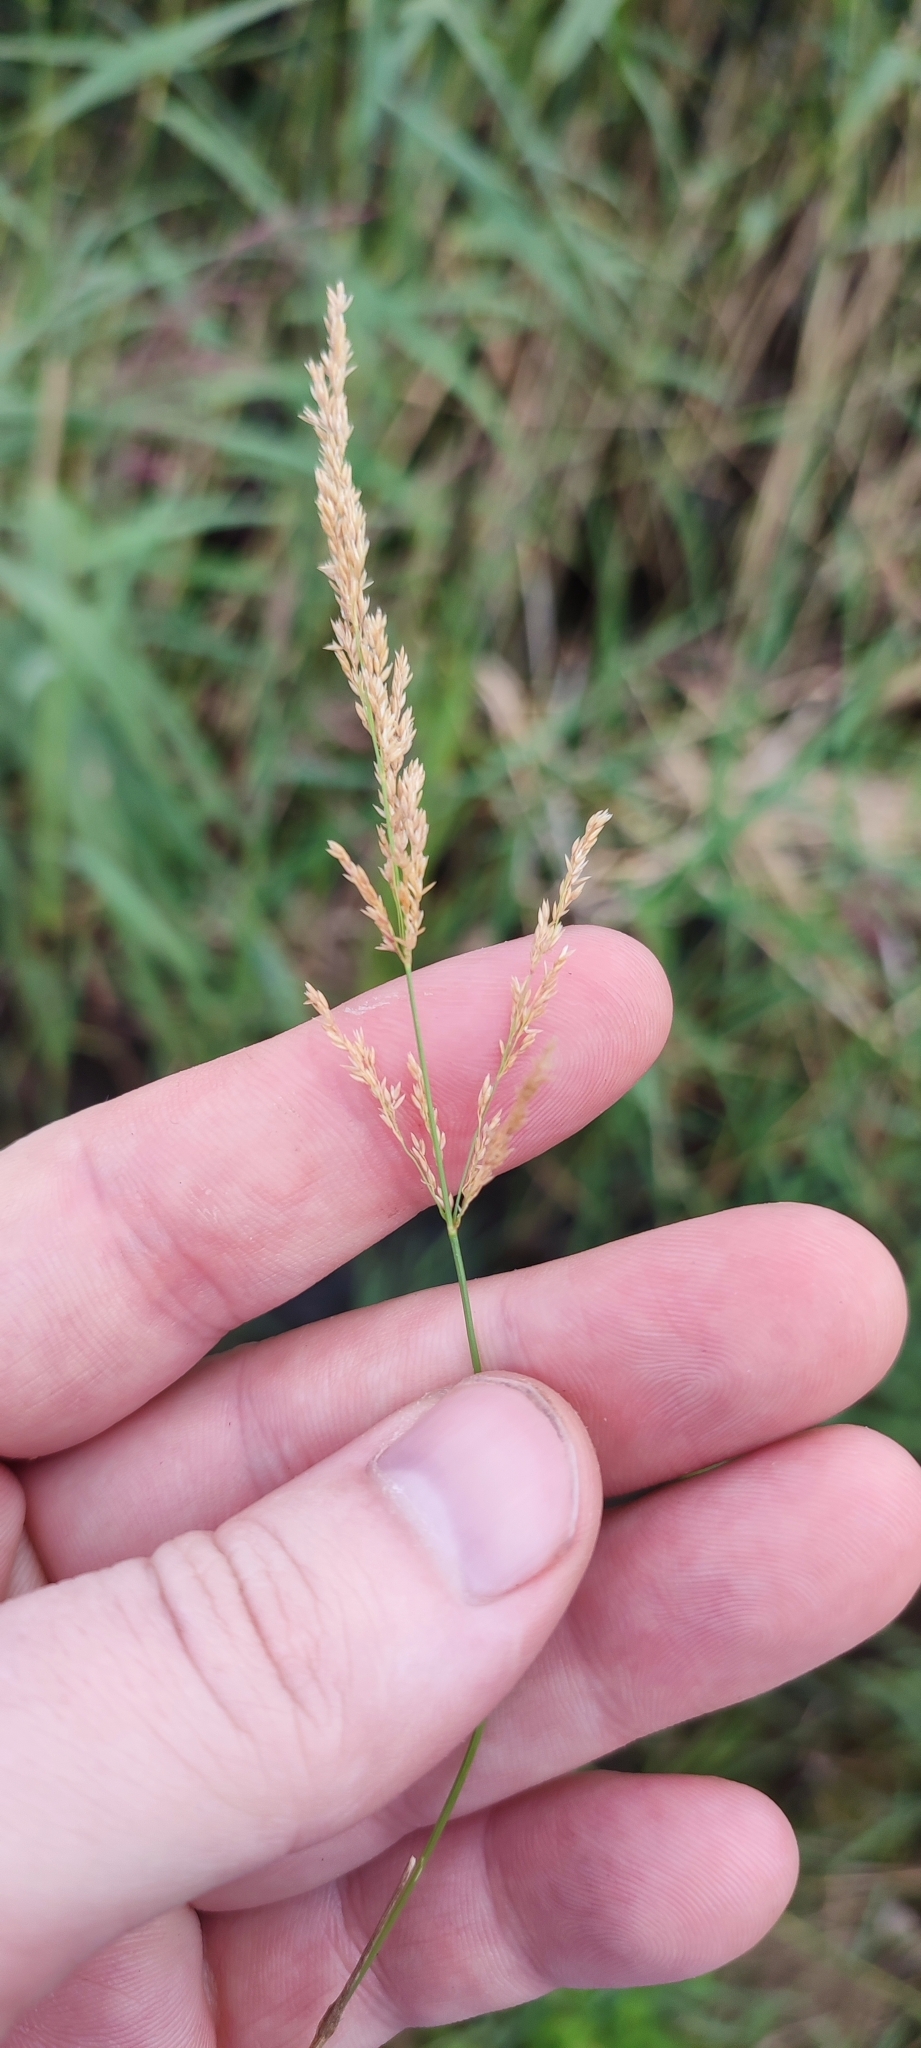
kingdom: Plantae
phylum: Tracheophyta
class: Liliopsida
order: Poales
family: Poaceae
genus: Agrostis
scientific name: Agrostis stolonifera
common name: Creeping bentgrass
